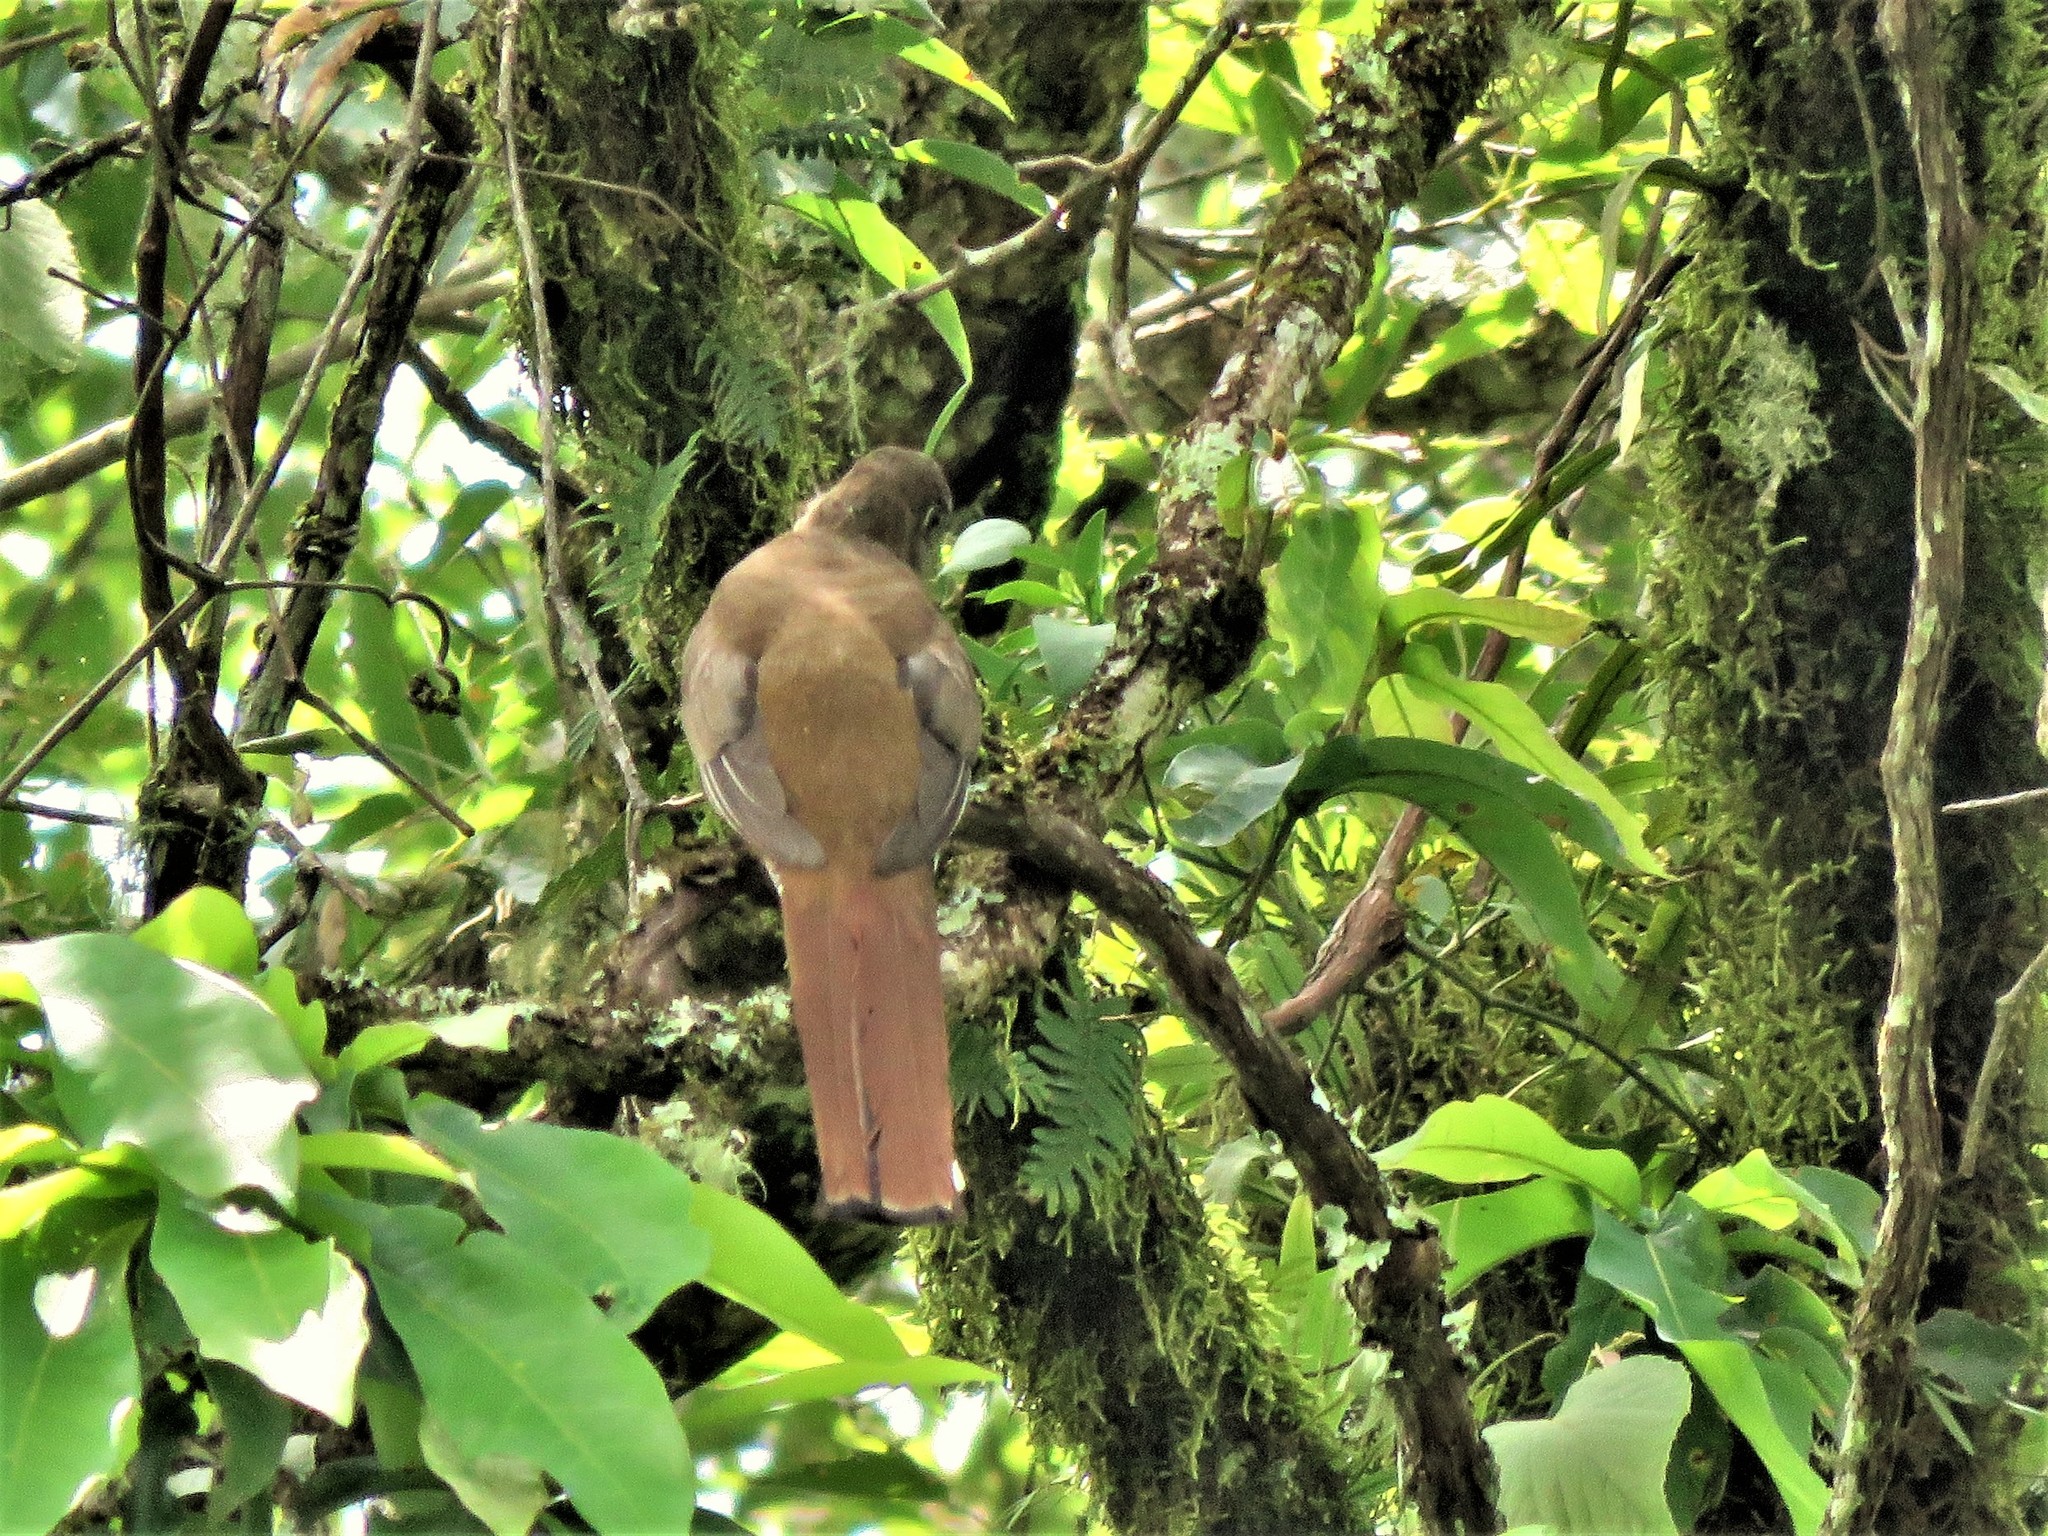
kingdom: Animalia
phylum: Chordata
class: Aves
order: Trogoniformes
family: Trogonidae
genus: Trogon
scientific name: Trogon mexicanus
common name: Mountain trogon
